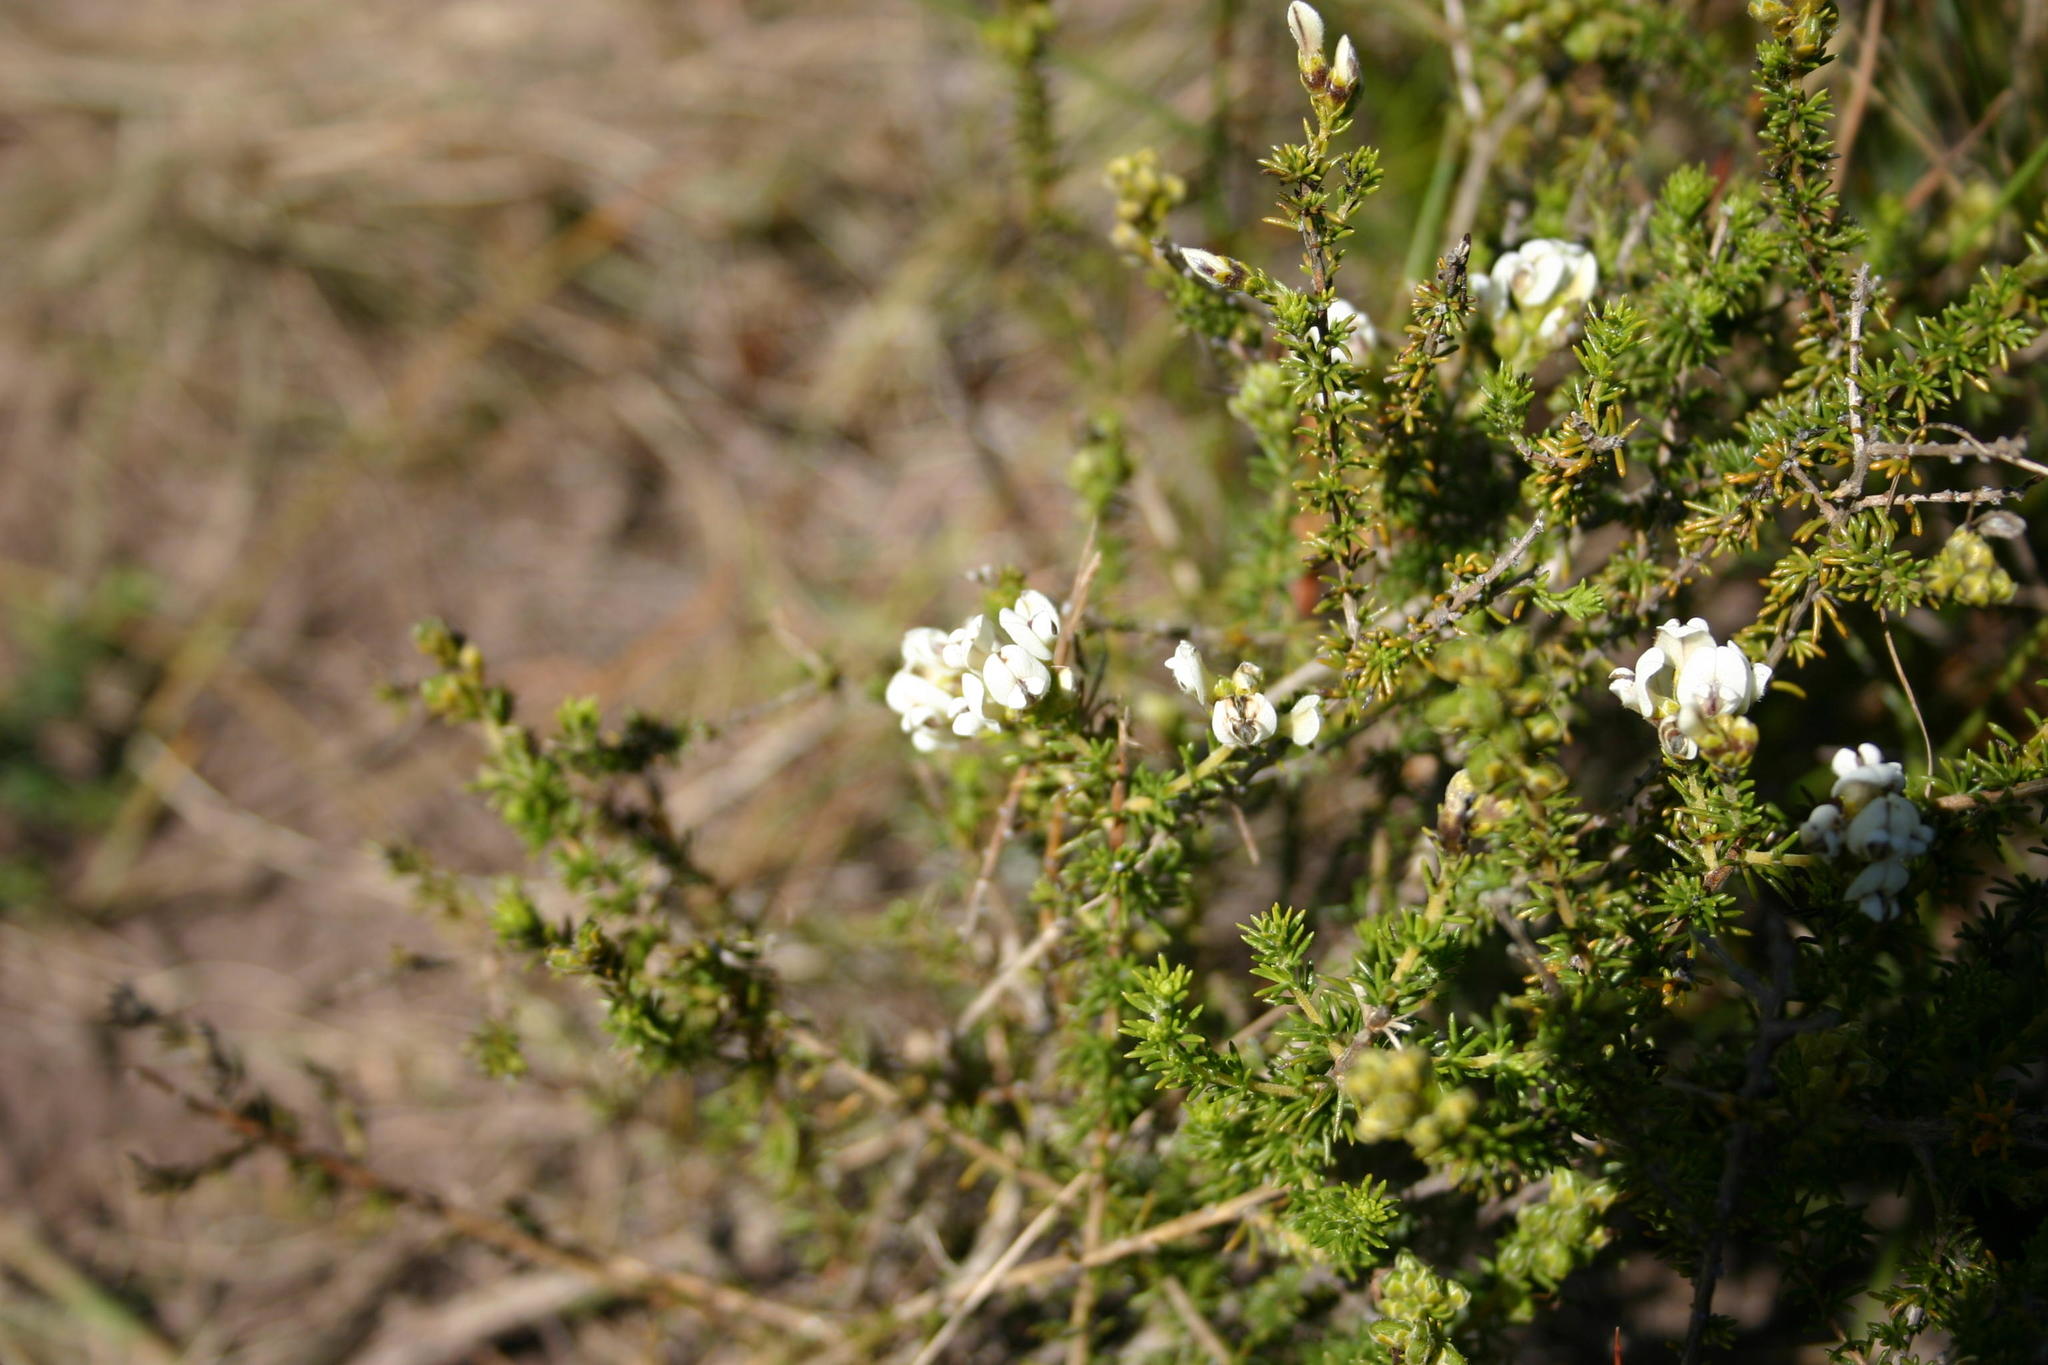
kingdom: Plantae
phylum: Tracheophyta
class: Magnoliopsida
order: Fabales
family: Fabaceae
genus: Aspalathus
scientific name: Aspalathus nigra
